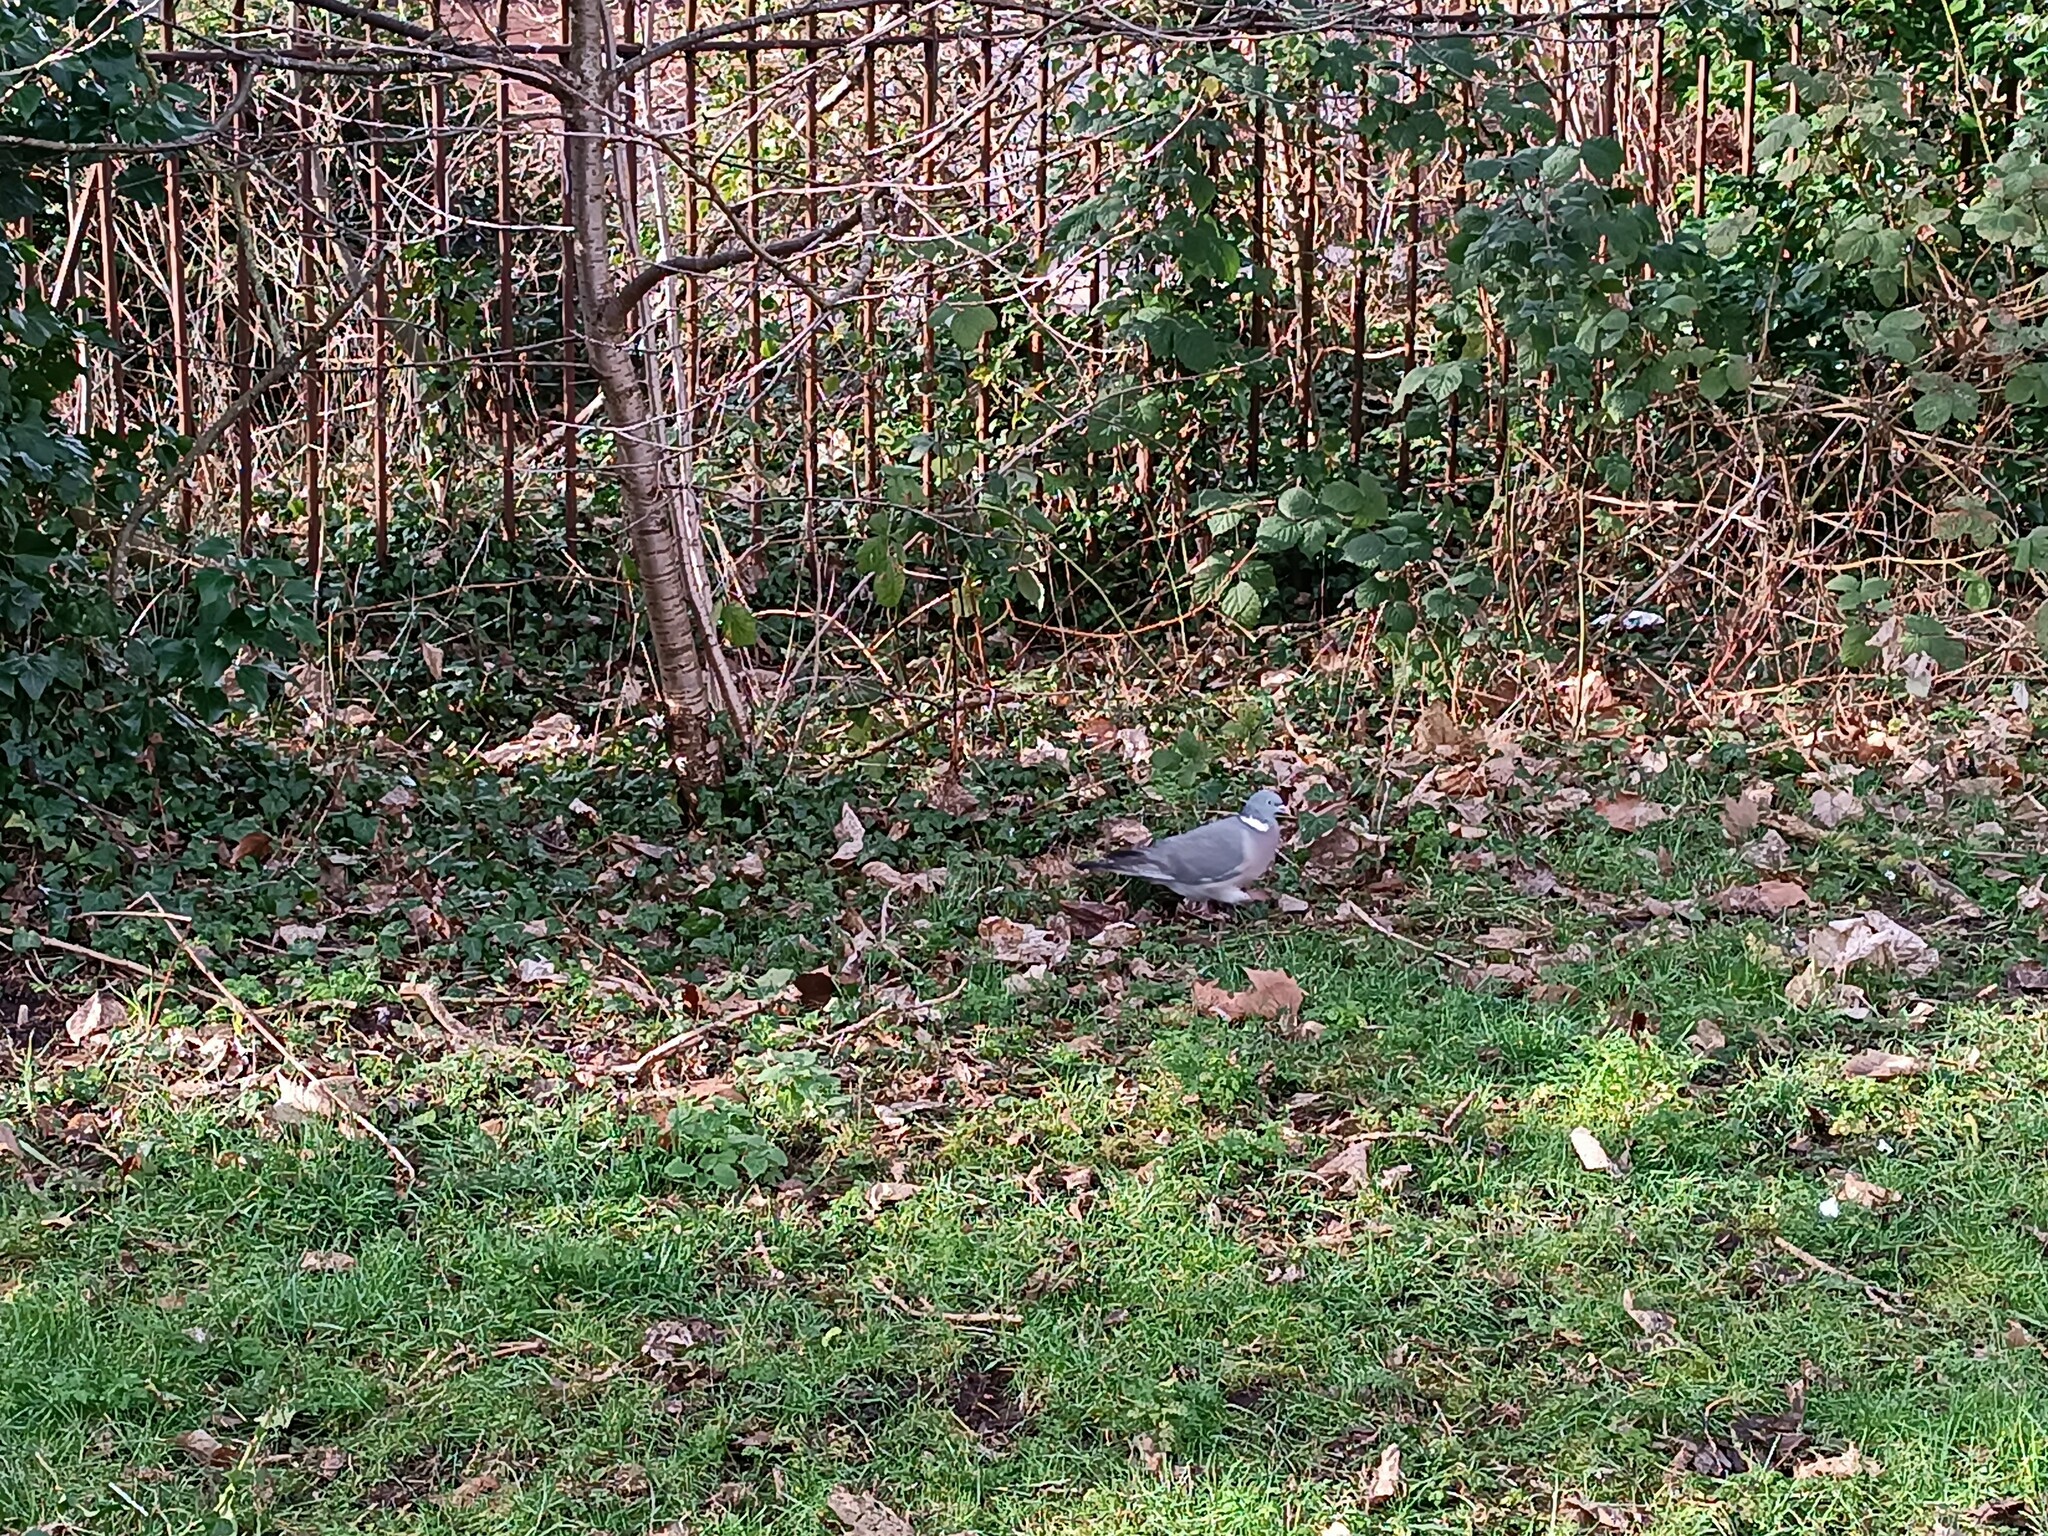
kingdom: Animalia
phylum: Chordata
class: Aves
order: Columbiformes
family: Columbidae
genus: Columba
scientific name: Columba palumbus
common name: Common wood pigeon
